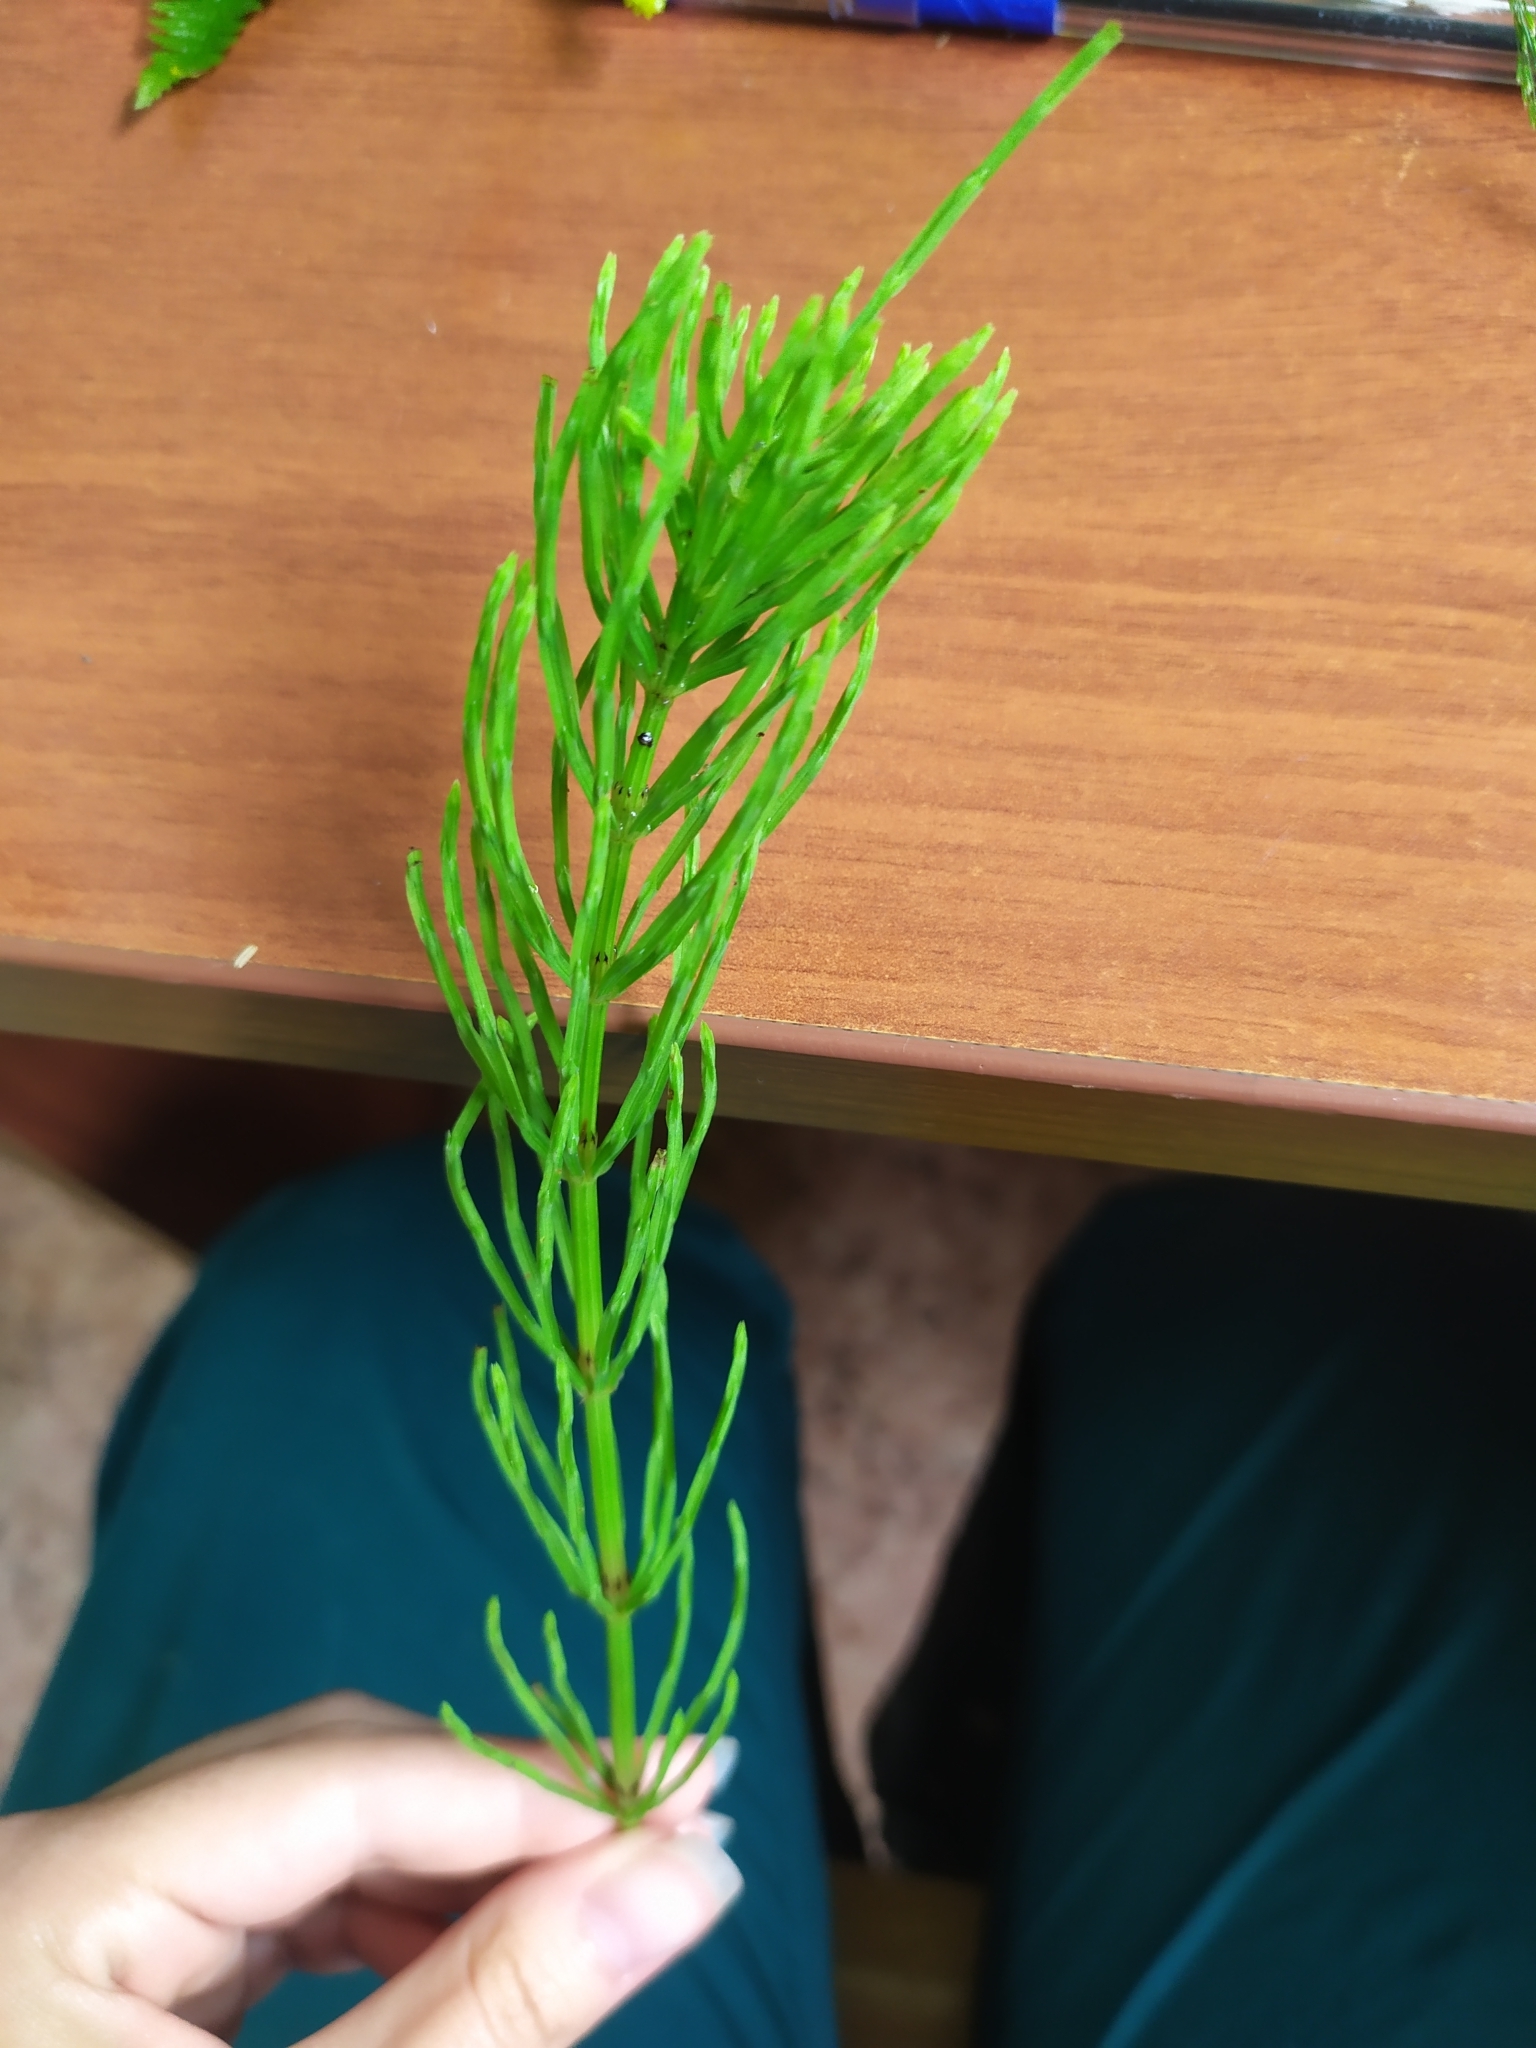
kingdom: Plantae
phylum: Tracheophyta
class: Polypodiopsida
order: Equisetales
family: Equisetaceae
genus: Equisetum
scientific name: Equisetum arvense
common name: Field horsetail
